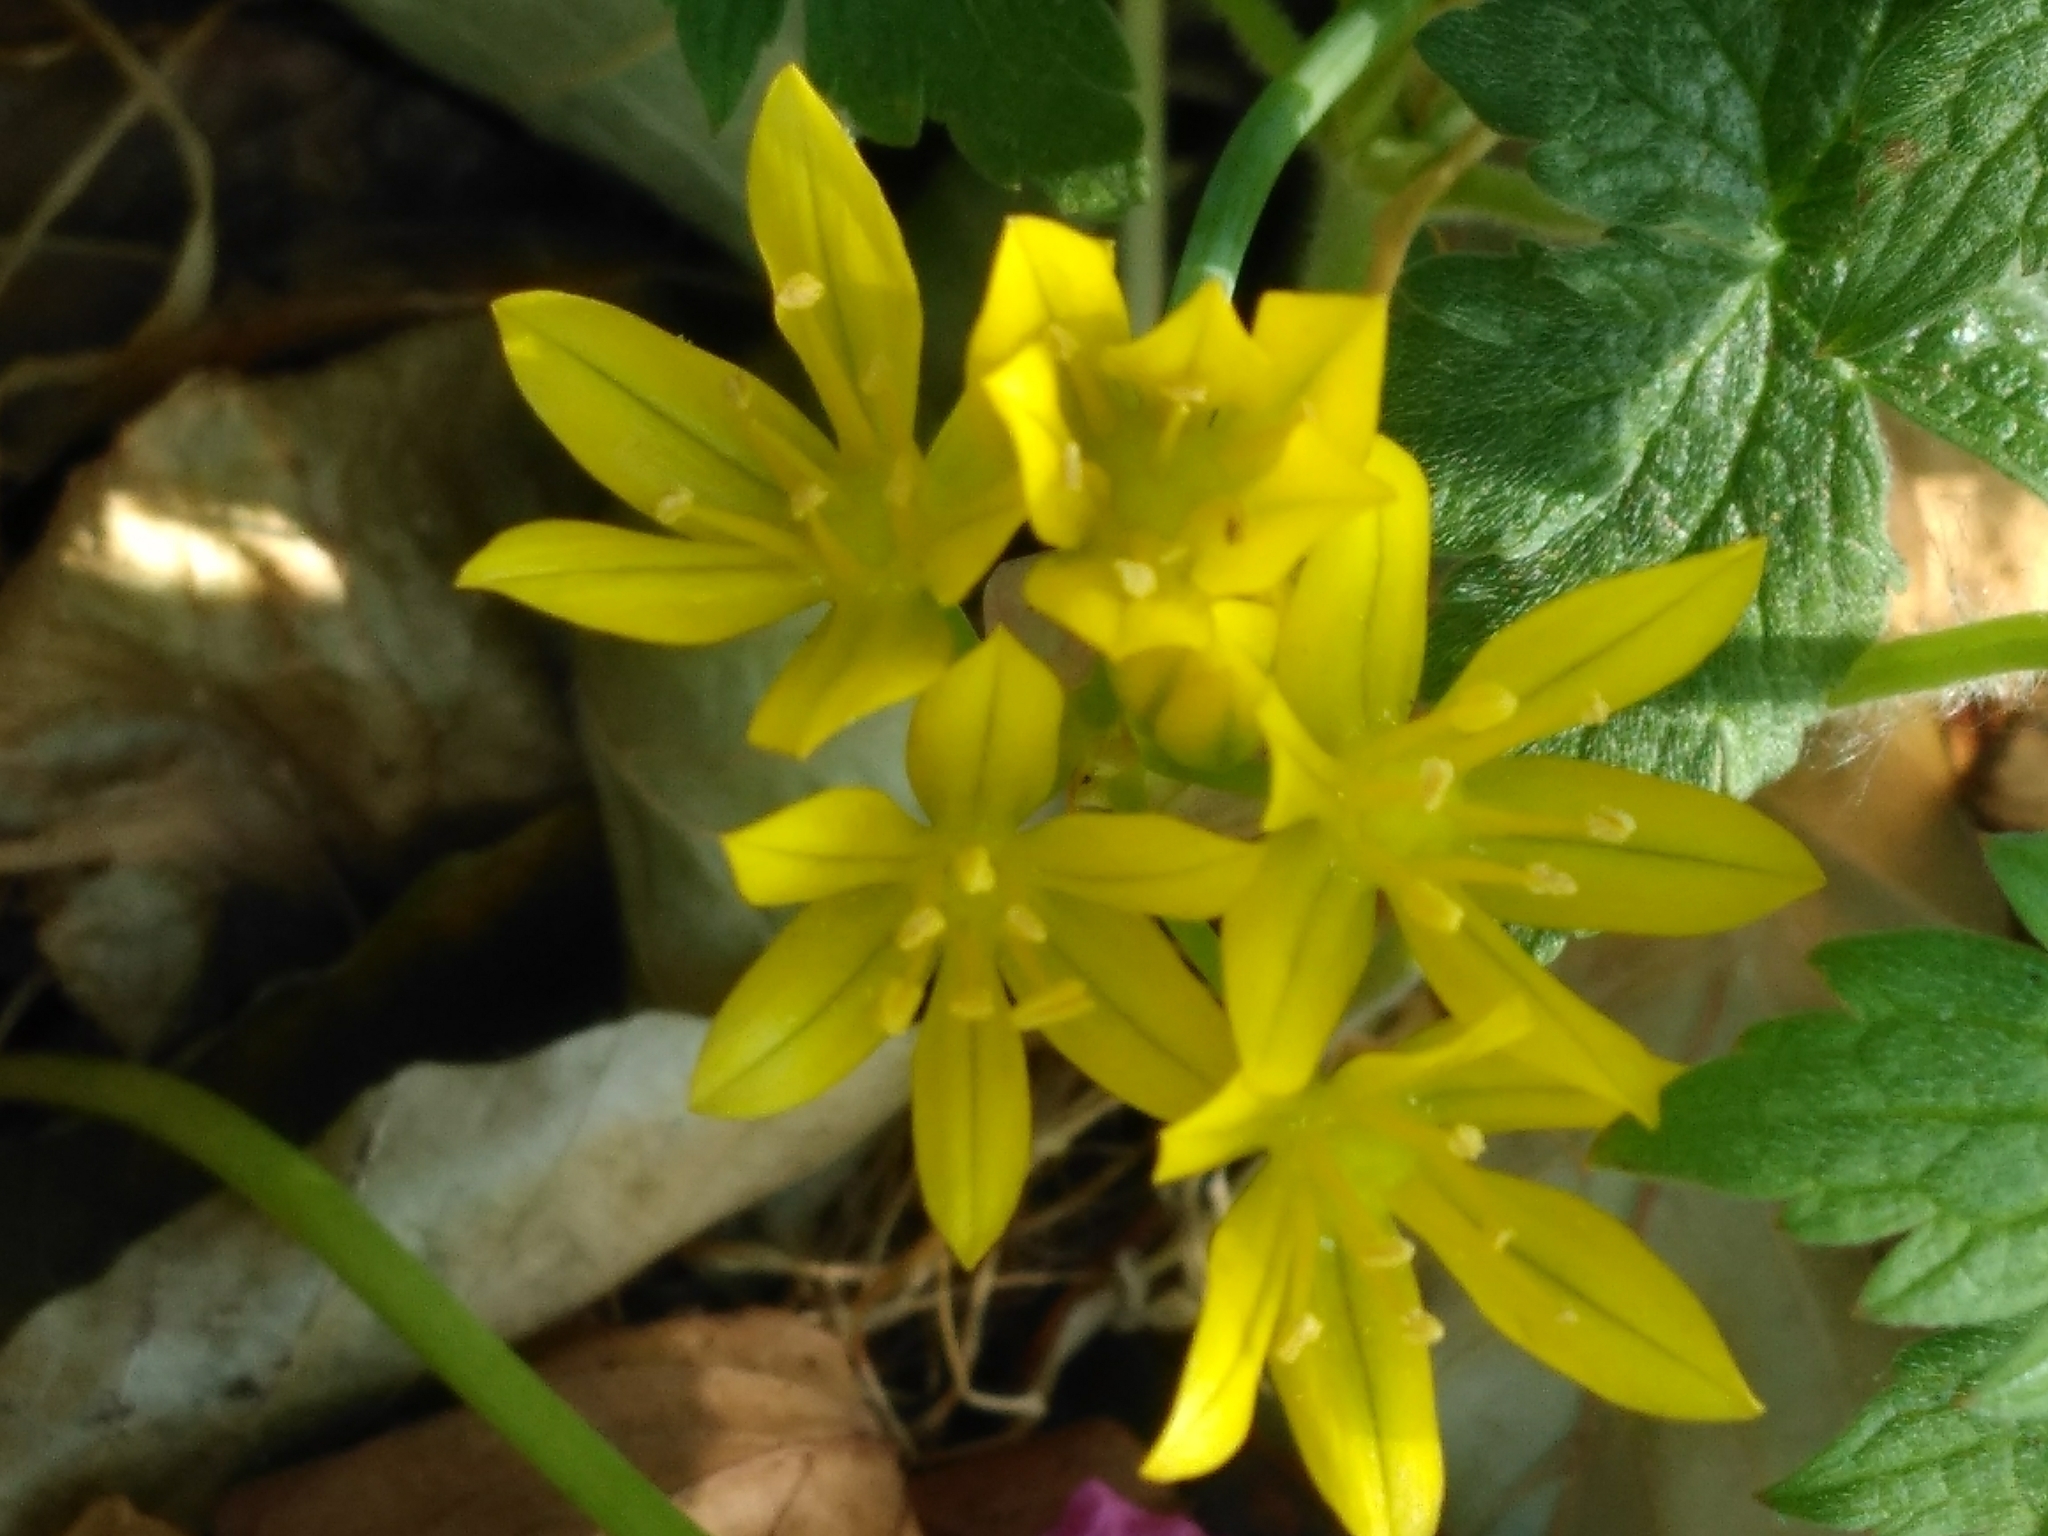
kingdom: Plantae
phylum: Tracheophyta
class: Liliopsida
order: Asparagales
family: Amaryllidaceae
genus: Allium
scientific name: Allium moly
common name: Yellow garlic
